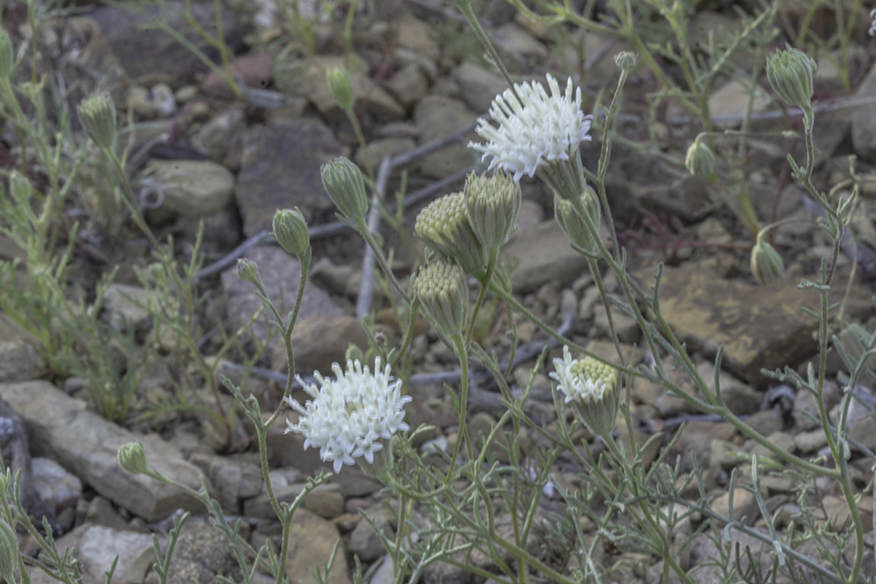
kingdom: Plantae
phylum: Tracheophyta
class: Magnoliopsida
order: Asterales
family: Asteraceae
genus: Chaenactis
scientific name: Chaenactis stevioides
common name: Desert pincushion
